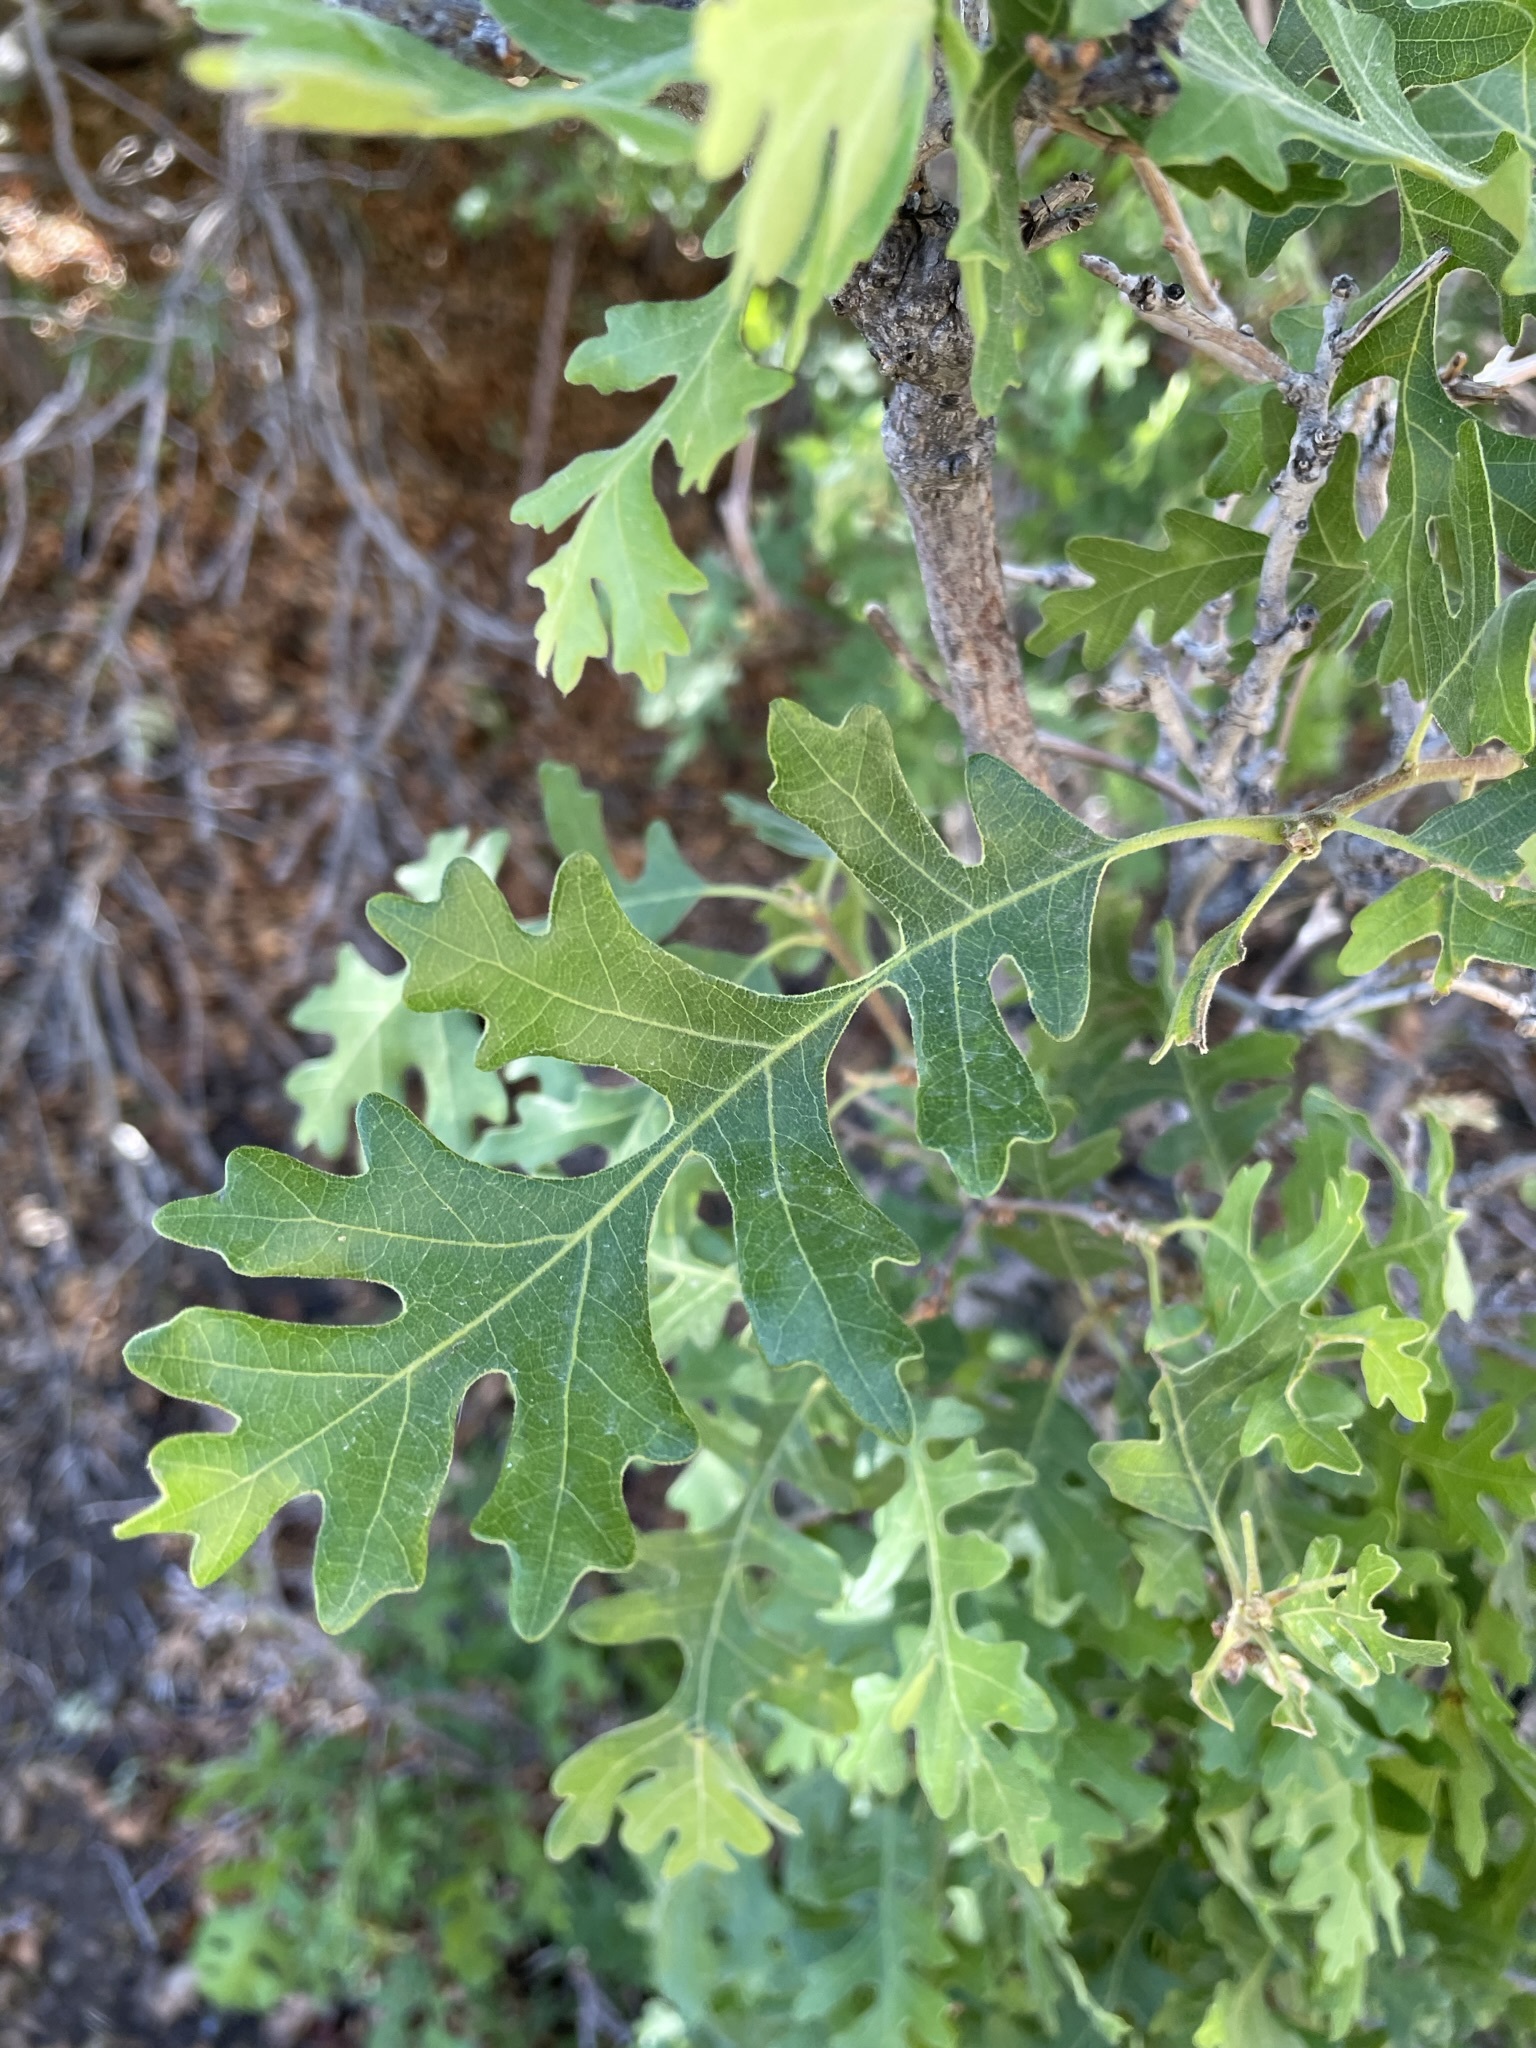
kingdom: Plantae
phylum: Tracheophyta
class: Magnoliopsida
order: Fagales
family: Fagaceae
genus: Quercus
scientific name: Quercus gambelii
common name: Gambel oak
